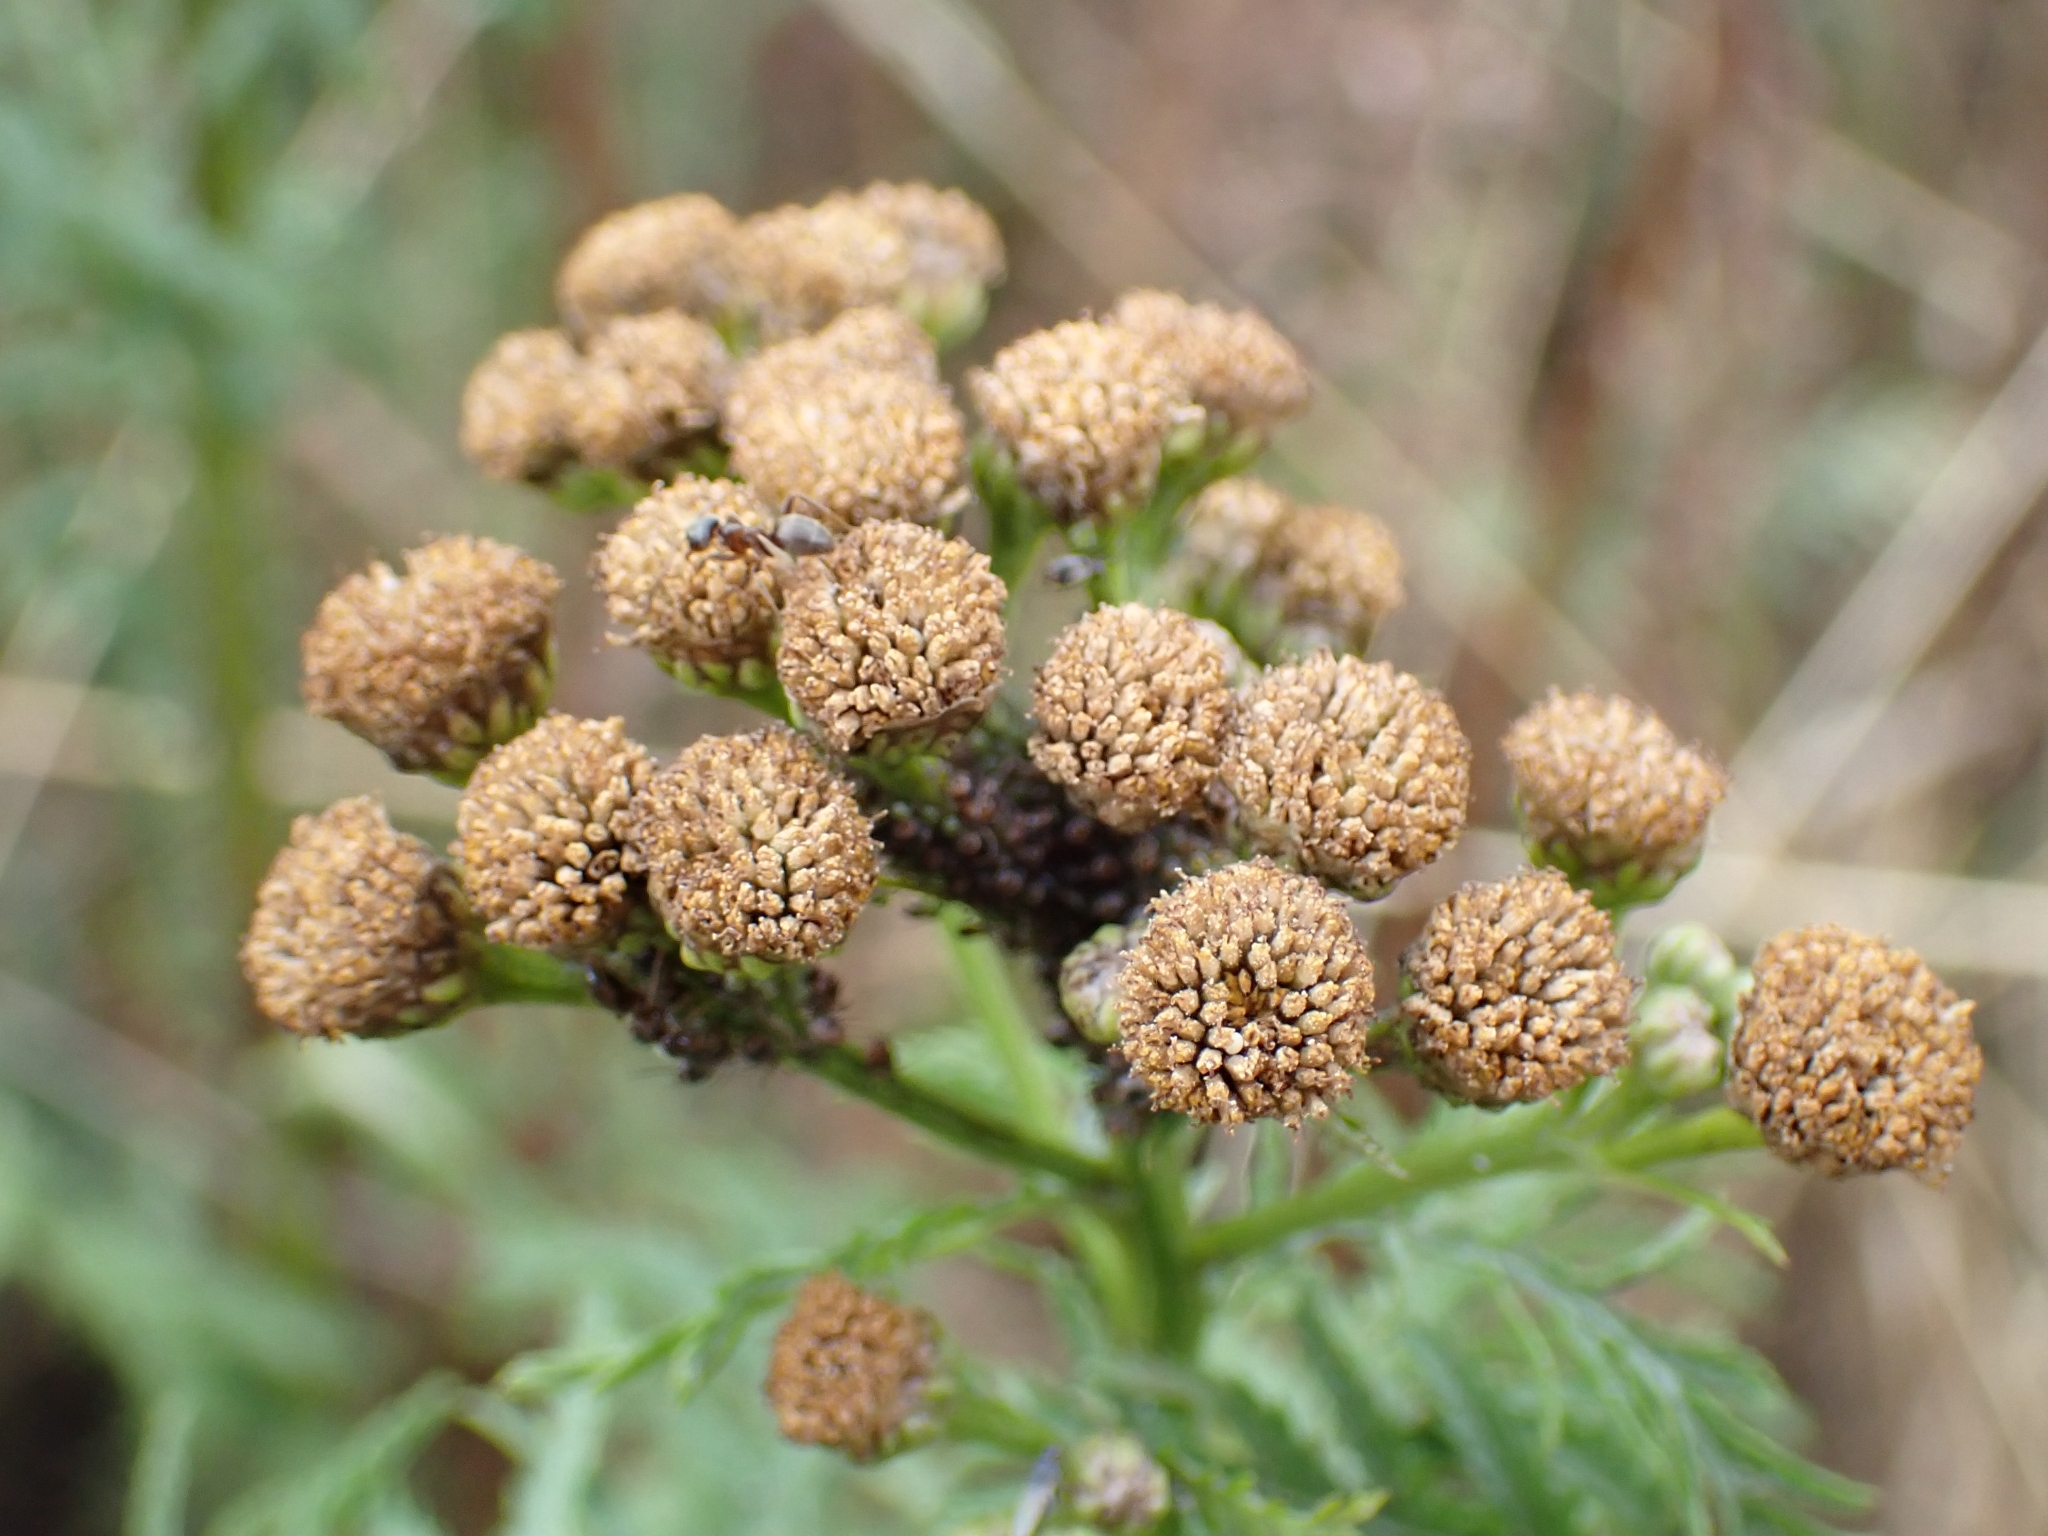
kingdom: Plantae
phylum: Tracheophyta
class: Magnoliopsida
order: Asterales
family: Asteraceae
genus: Tanacetum
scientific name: Tanacetum vulgare
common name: Common tansy
